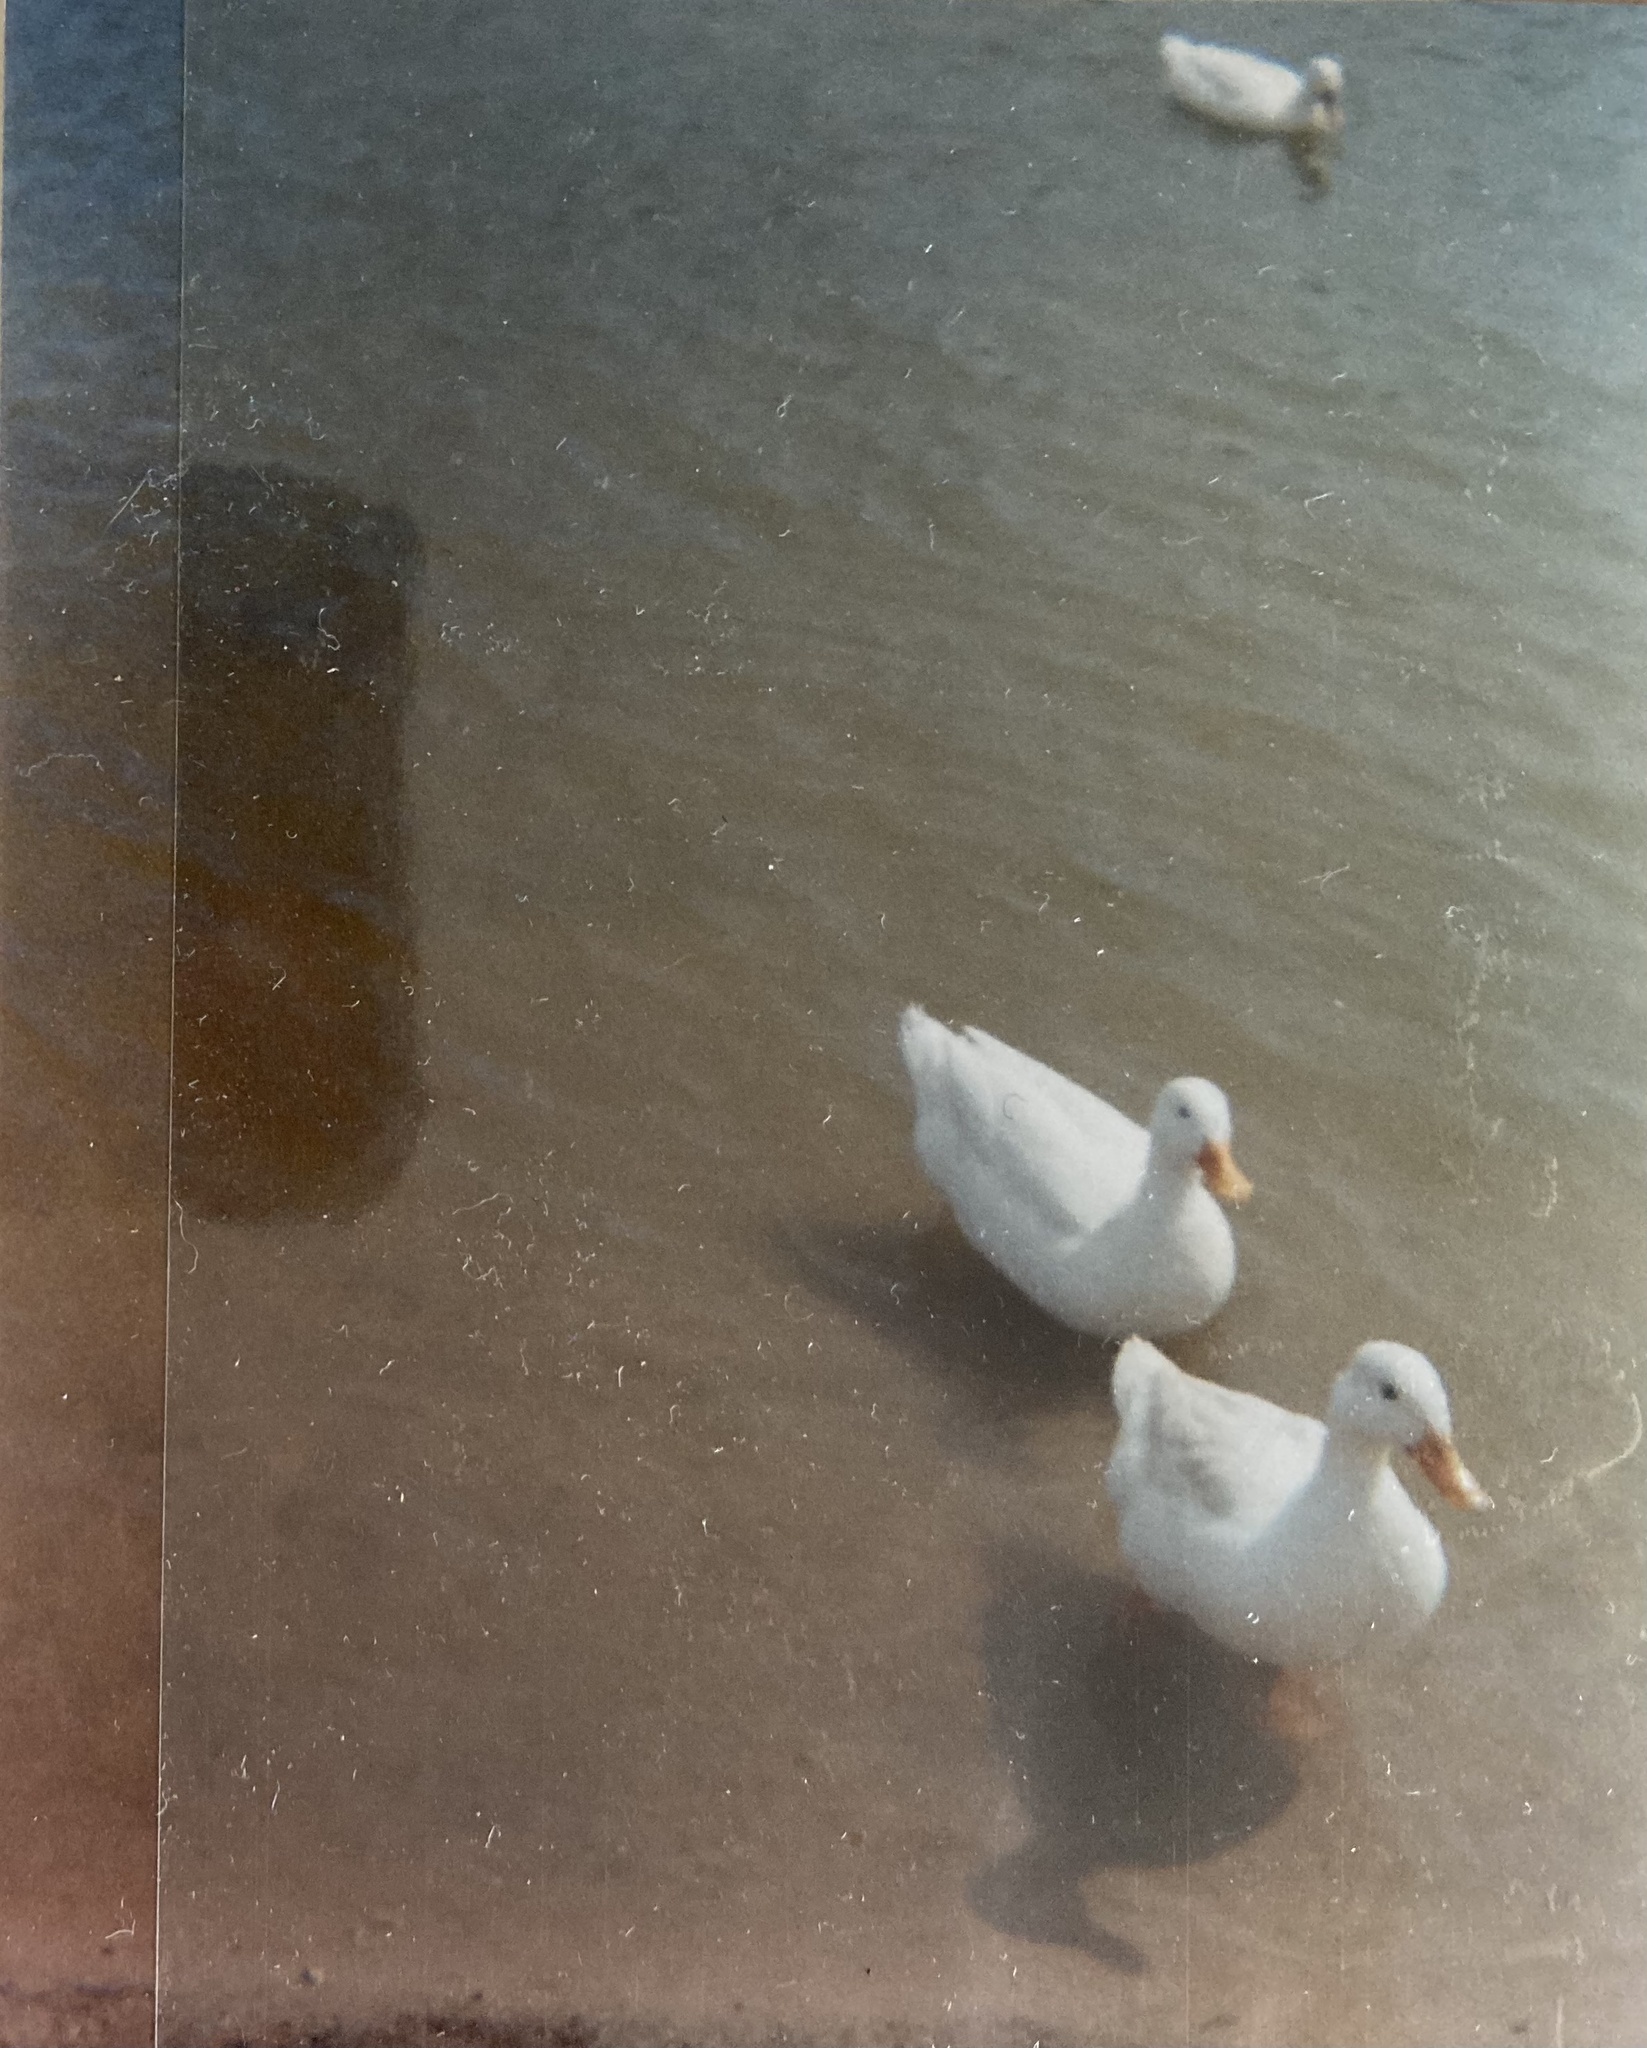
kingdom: Animalia
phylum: Chordata
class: Aves
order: Anseriformes
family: Anatidae
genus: Anas
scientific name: Anas platyrhynchos
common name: Mallard
